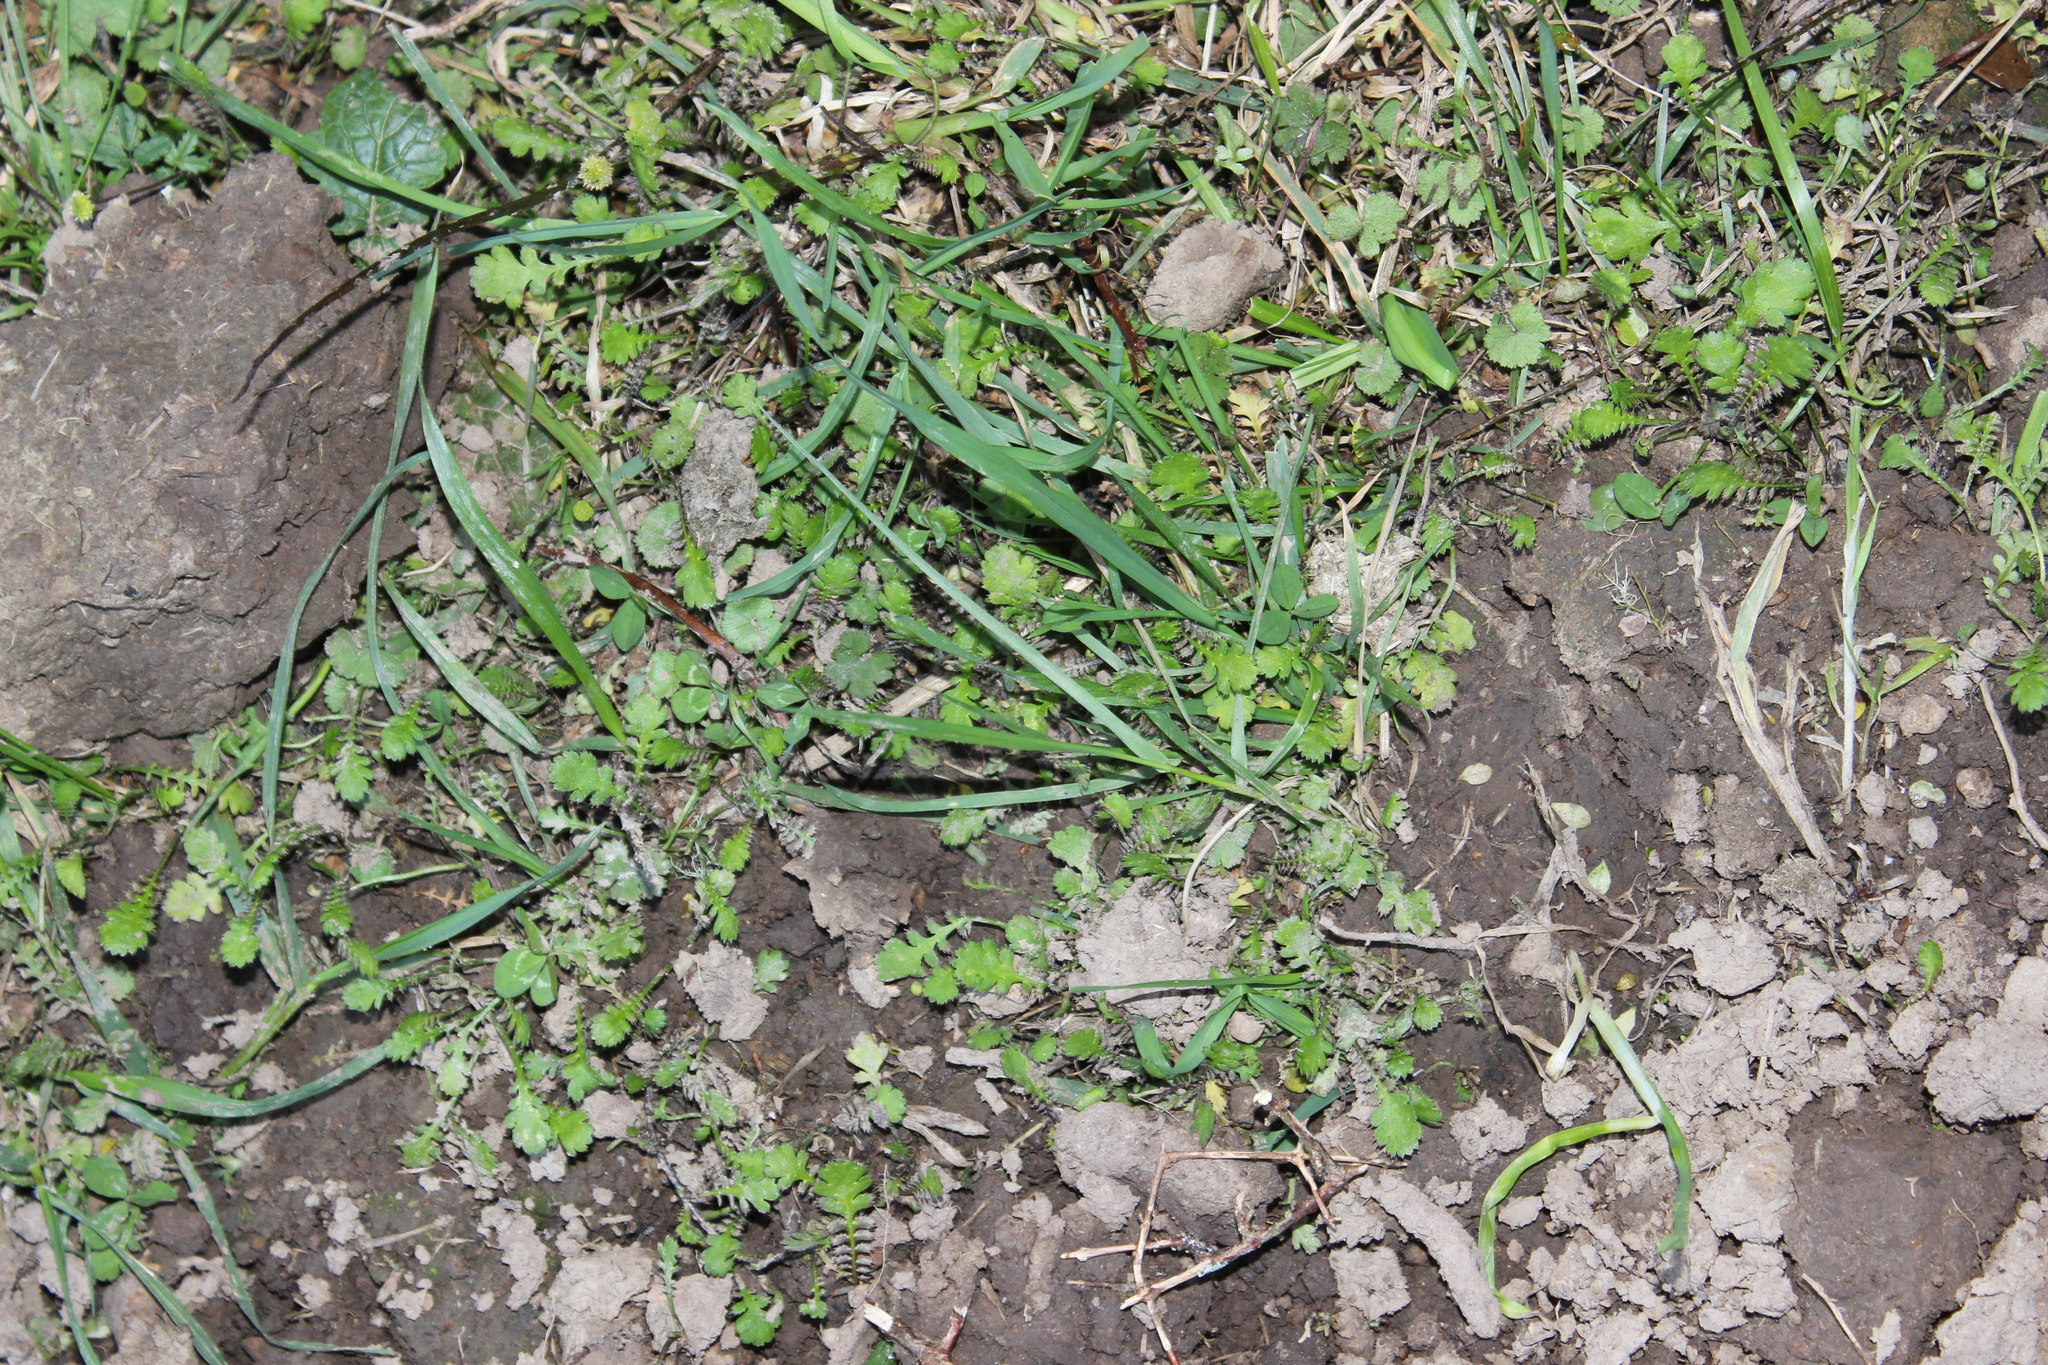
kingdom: Plantae
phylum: Tracheophyta
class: Magnoliopsida
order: Asterales
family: Asteraceae
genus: Leptinella
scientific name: Leptinella squalida
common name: New zealand brass-buttons
